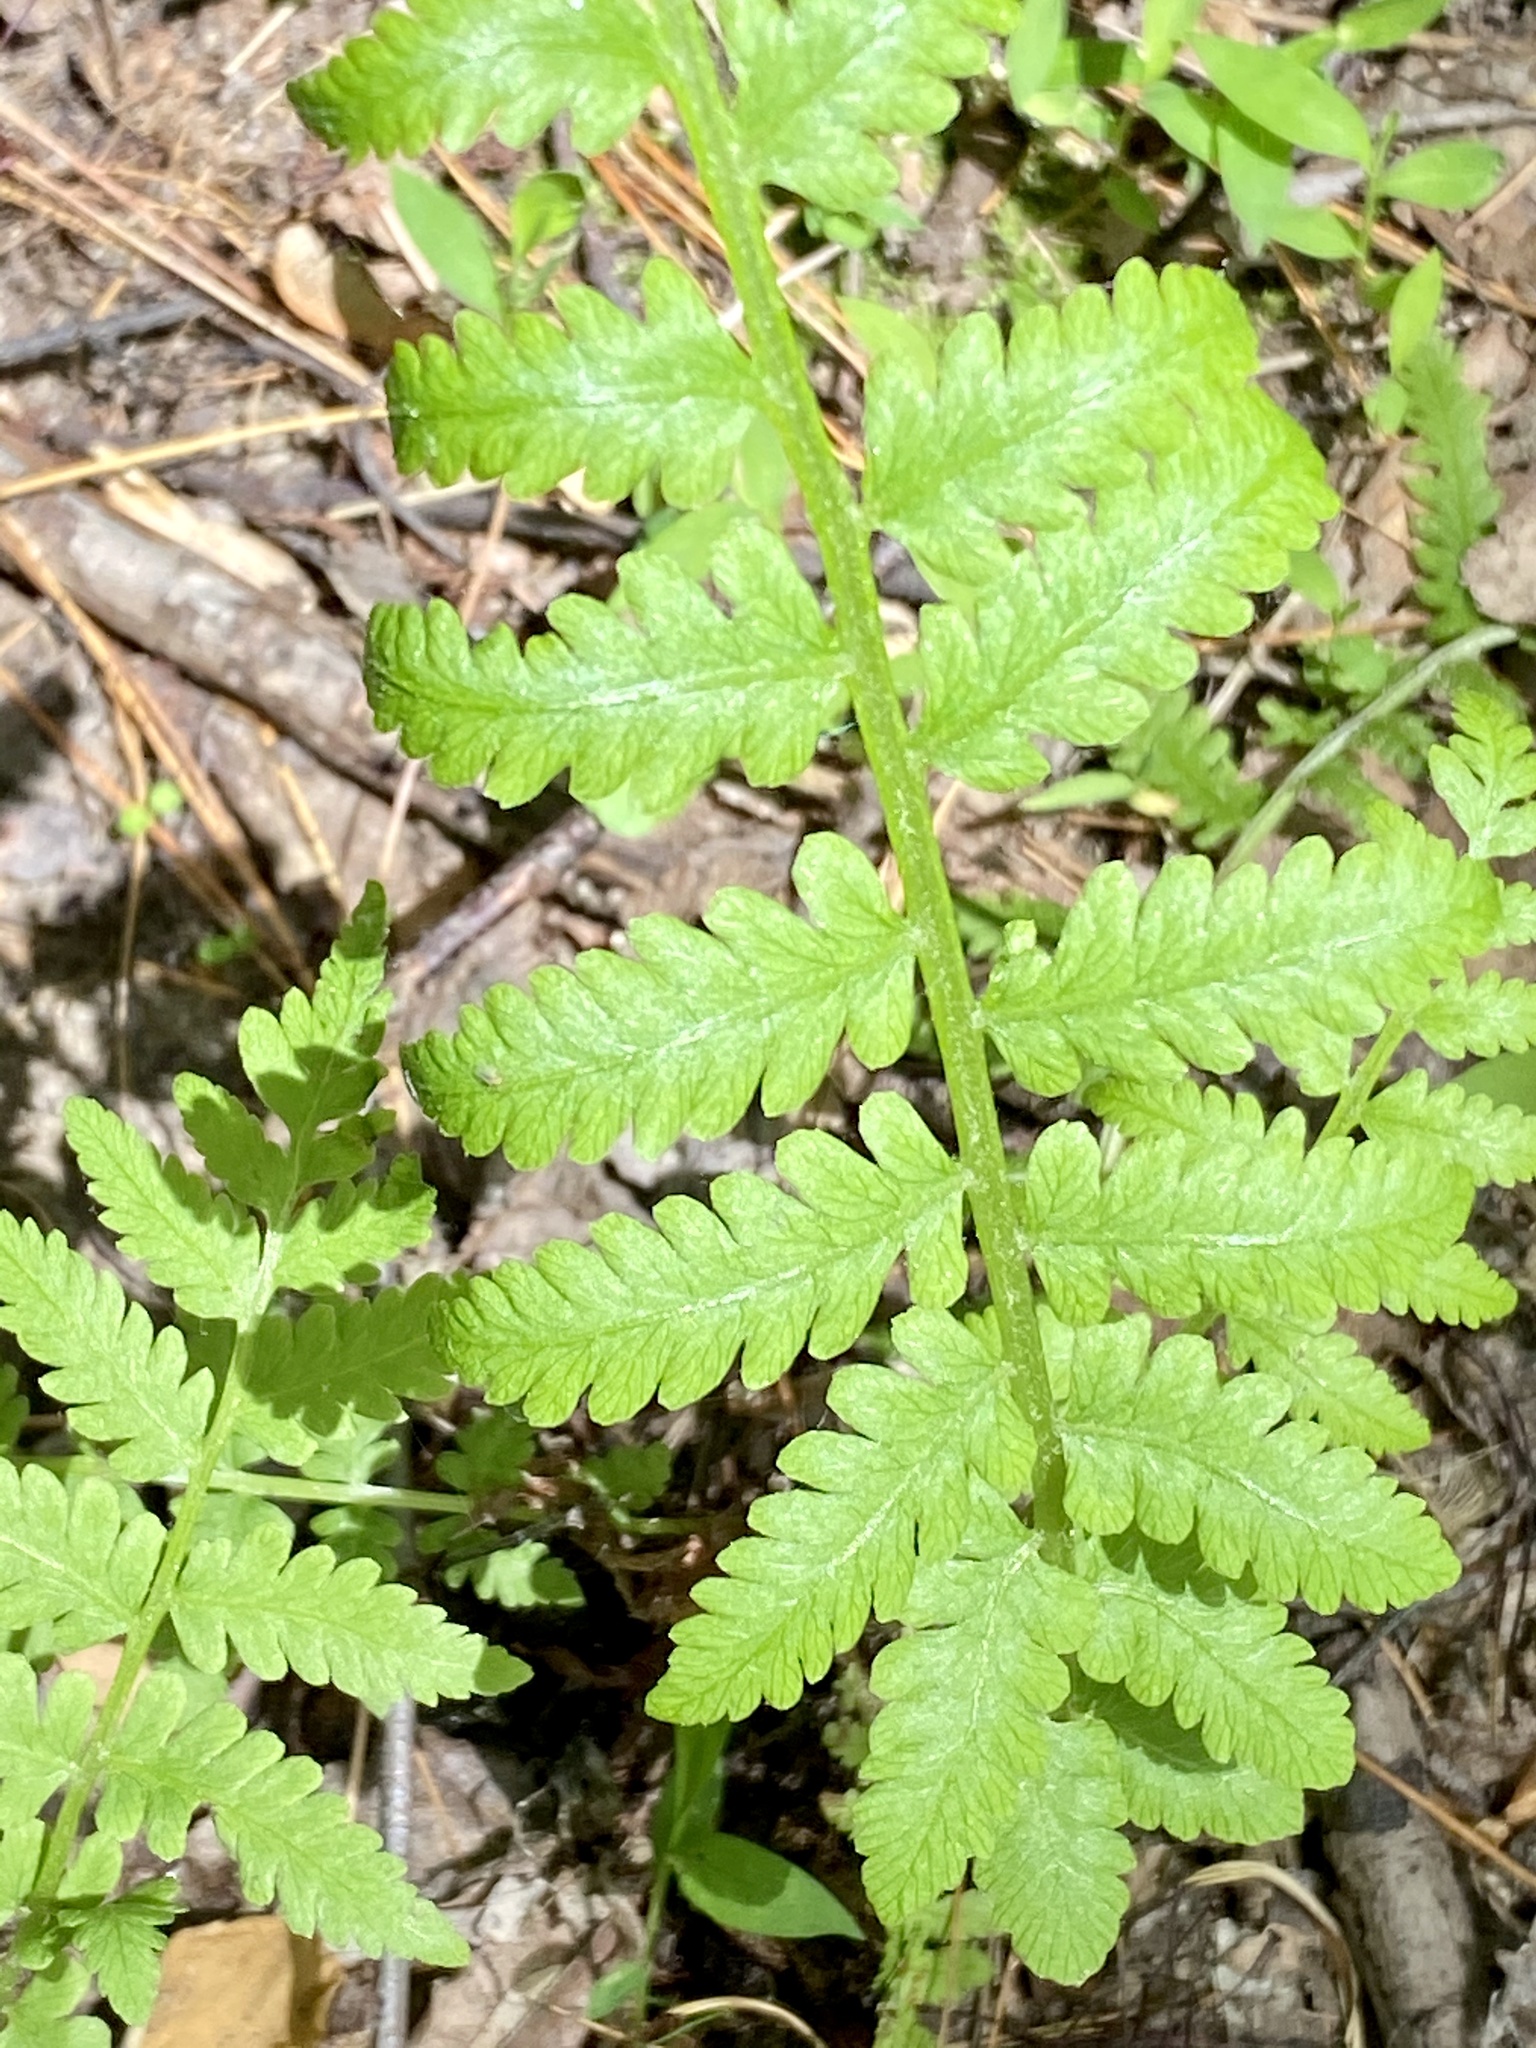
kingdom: Plantae
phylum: Tracheophyta
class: Polypodiopsida
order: Polypodiales
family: Athyriaceae
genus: Deparia
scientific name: Deparia acrostichoides
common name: Silver false spleenwort
